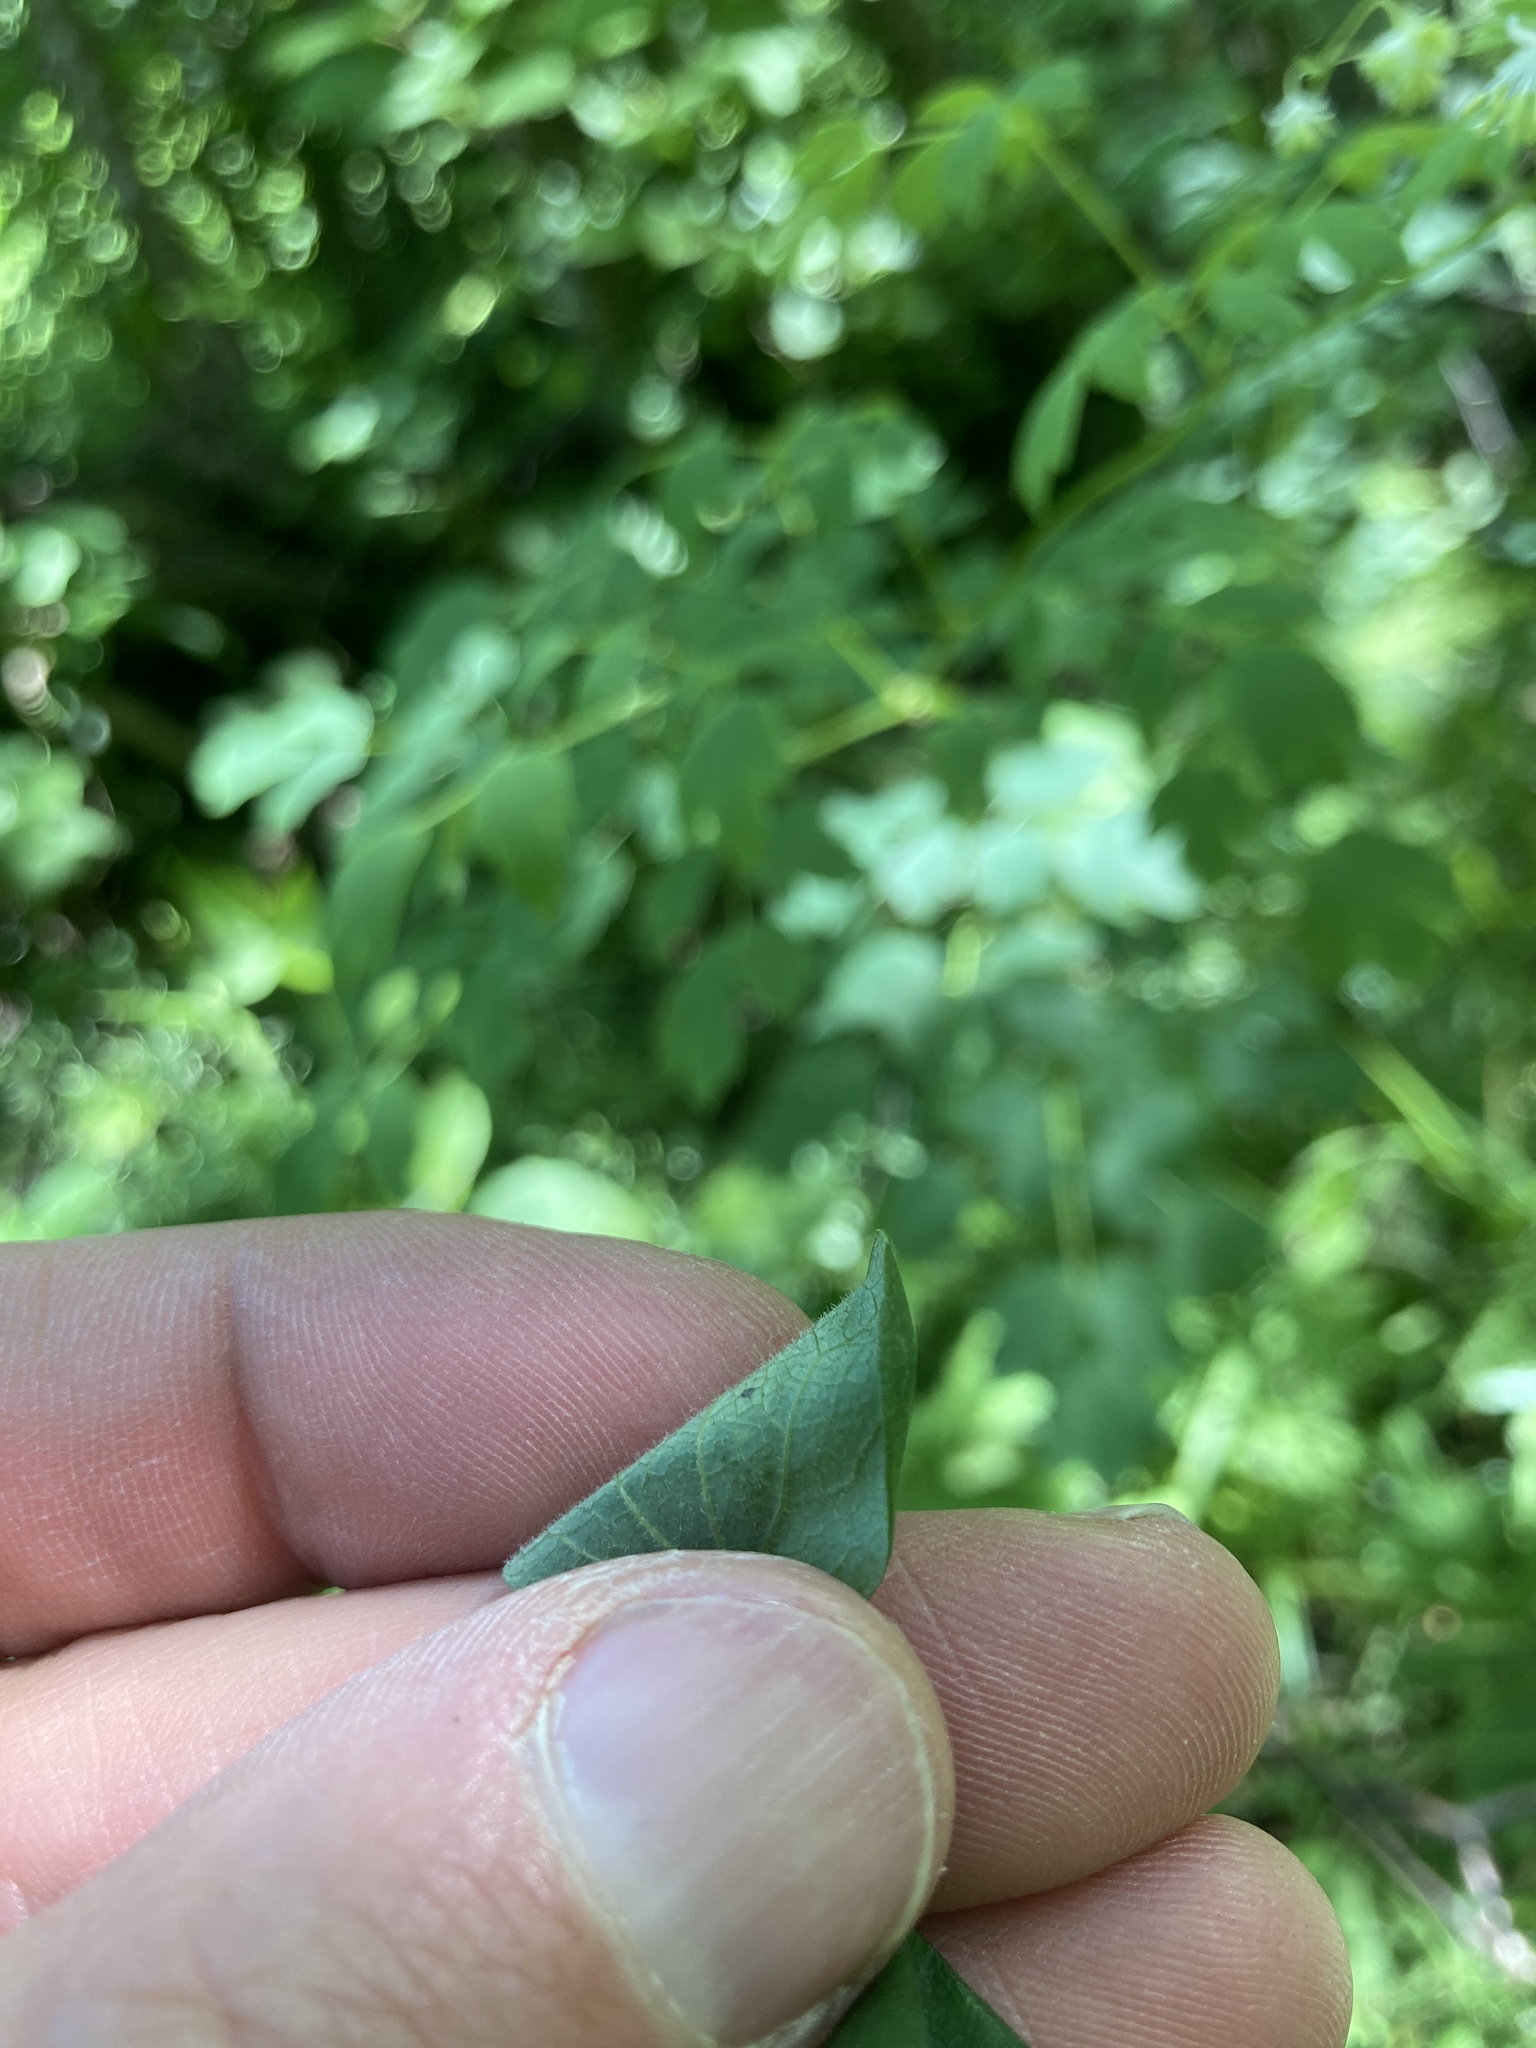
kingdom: Plantae
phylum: Tracheophyta
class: Magnoliopsida
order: Ranunculales
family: Ranunculaceae
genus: Thalictrum
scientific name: Thalictrum dasycarpum
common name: Purple meadow-rue
